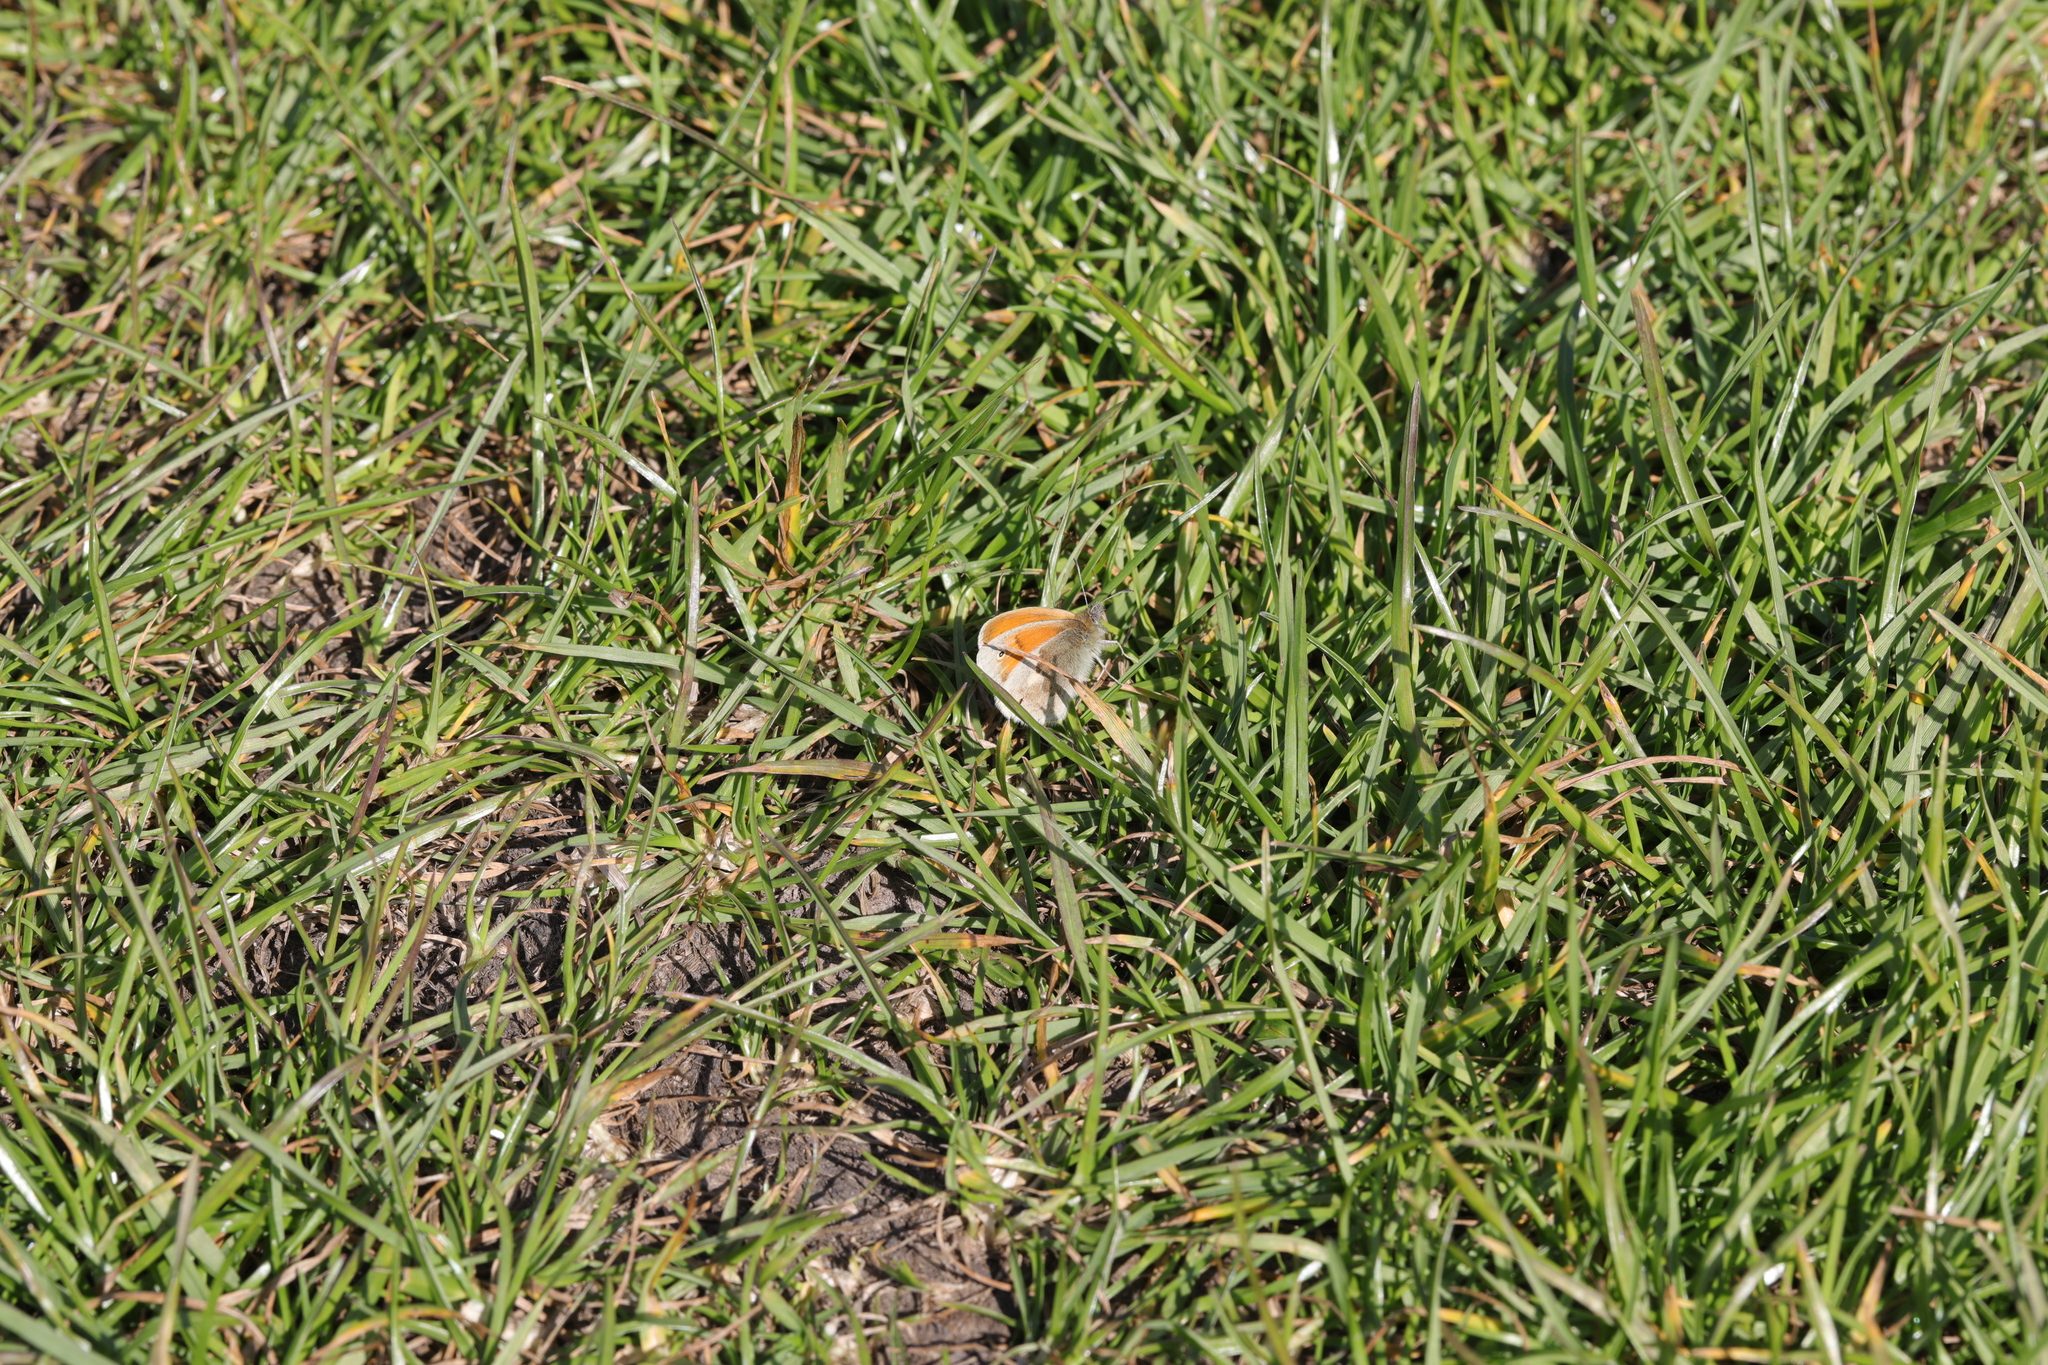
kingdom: Animalia
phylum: Arthropoda
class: Insecta
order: Lepidoptera
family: Nymphalidae
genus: Coenonympha
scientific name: Coenonympha pamphilus
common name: Small heath
